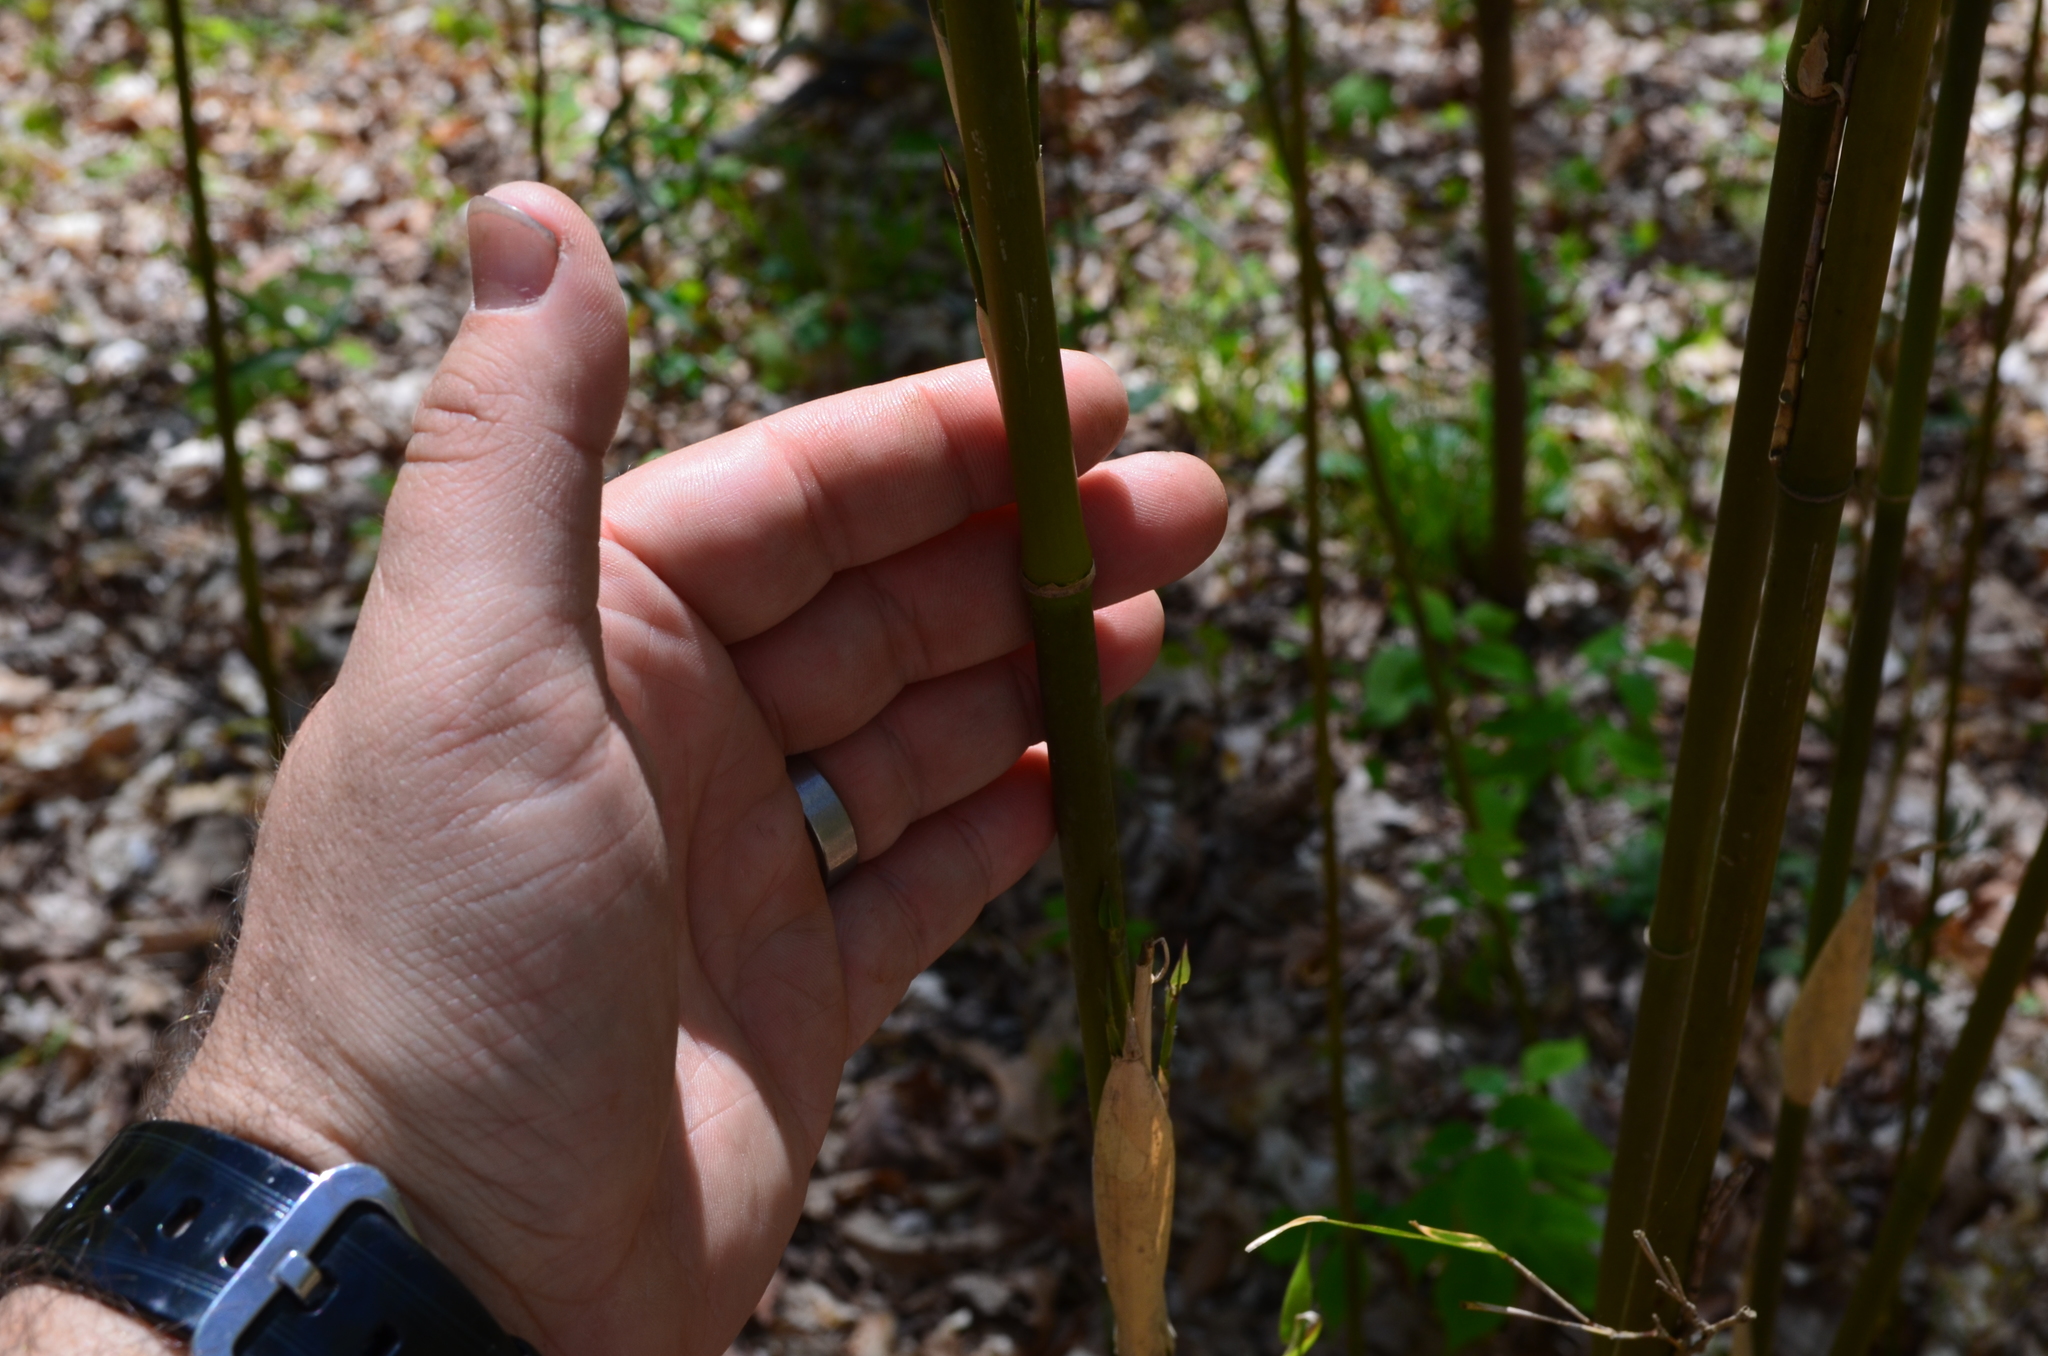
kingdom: Plantae
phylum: Tracheophyta
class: Liliopsida
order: Poales
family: Poaceae
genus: Arundinaria
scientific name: Arundinaria gigantea
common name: Giant cane
